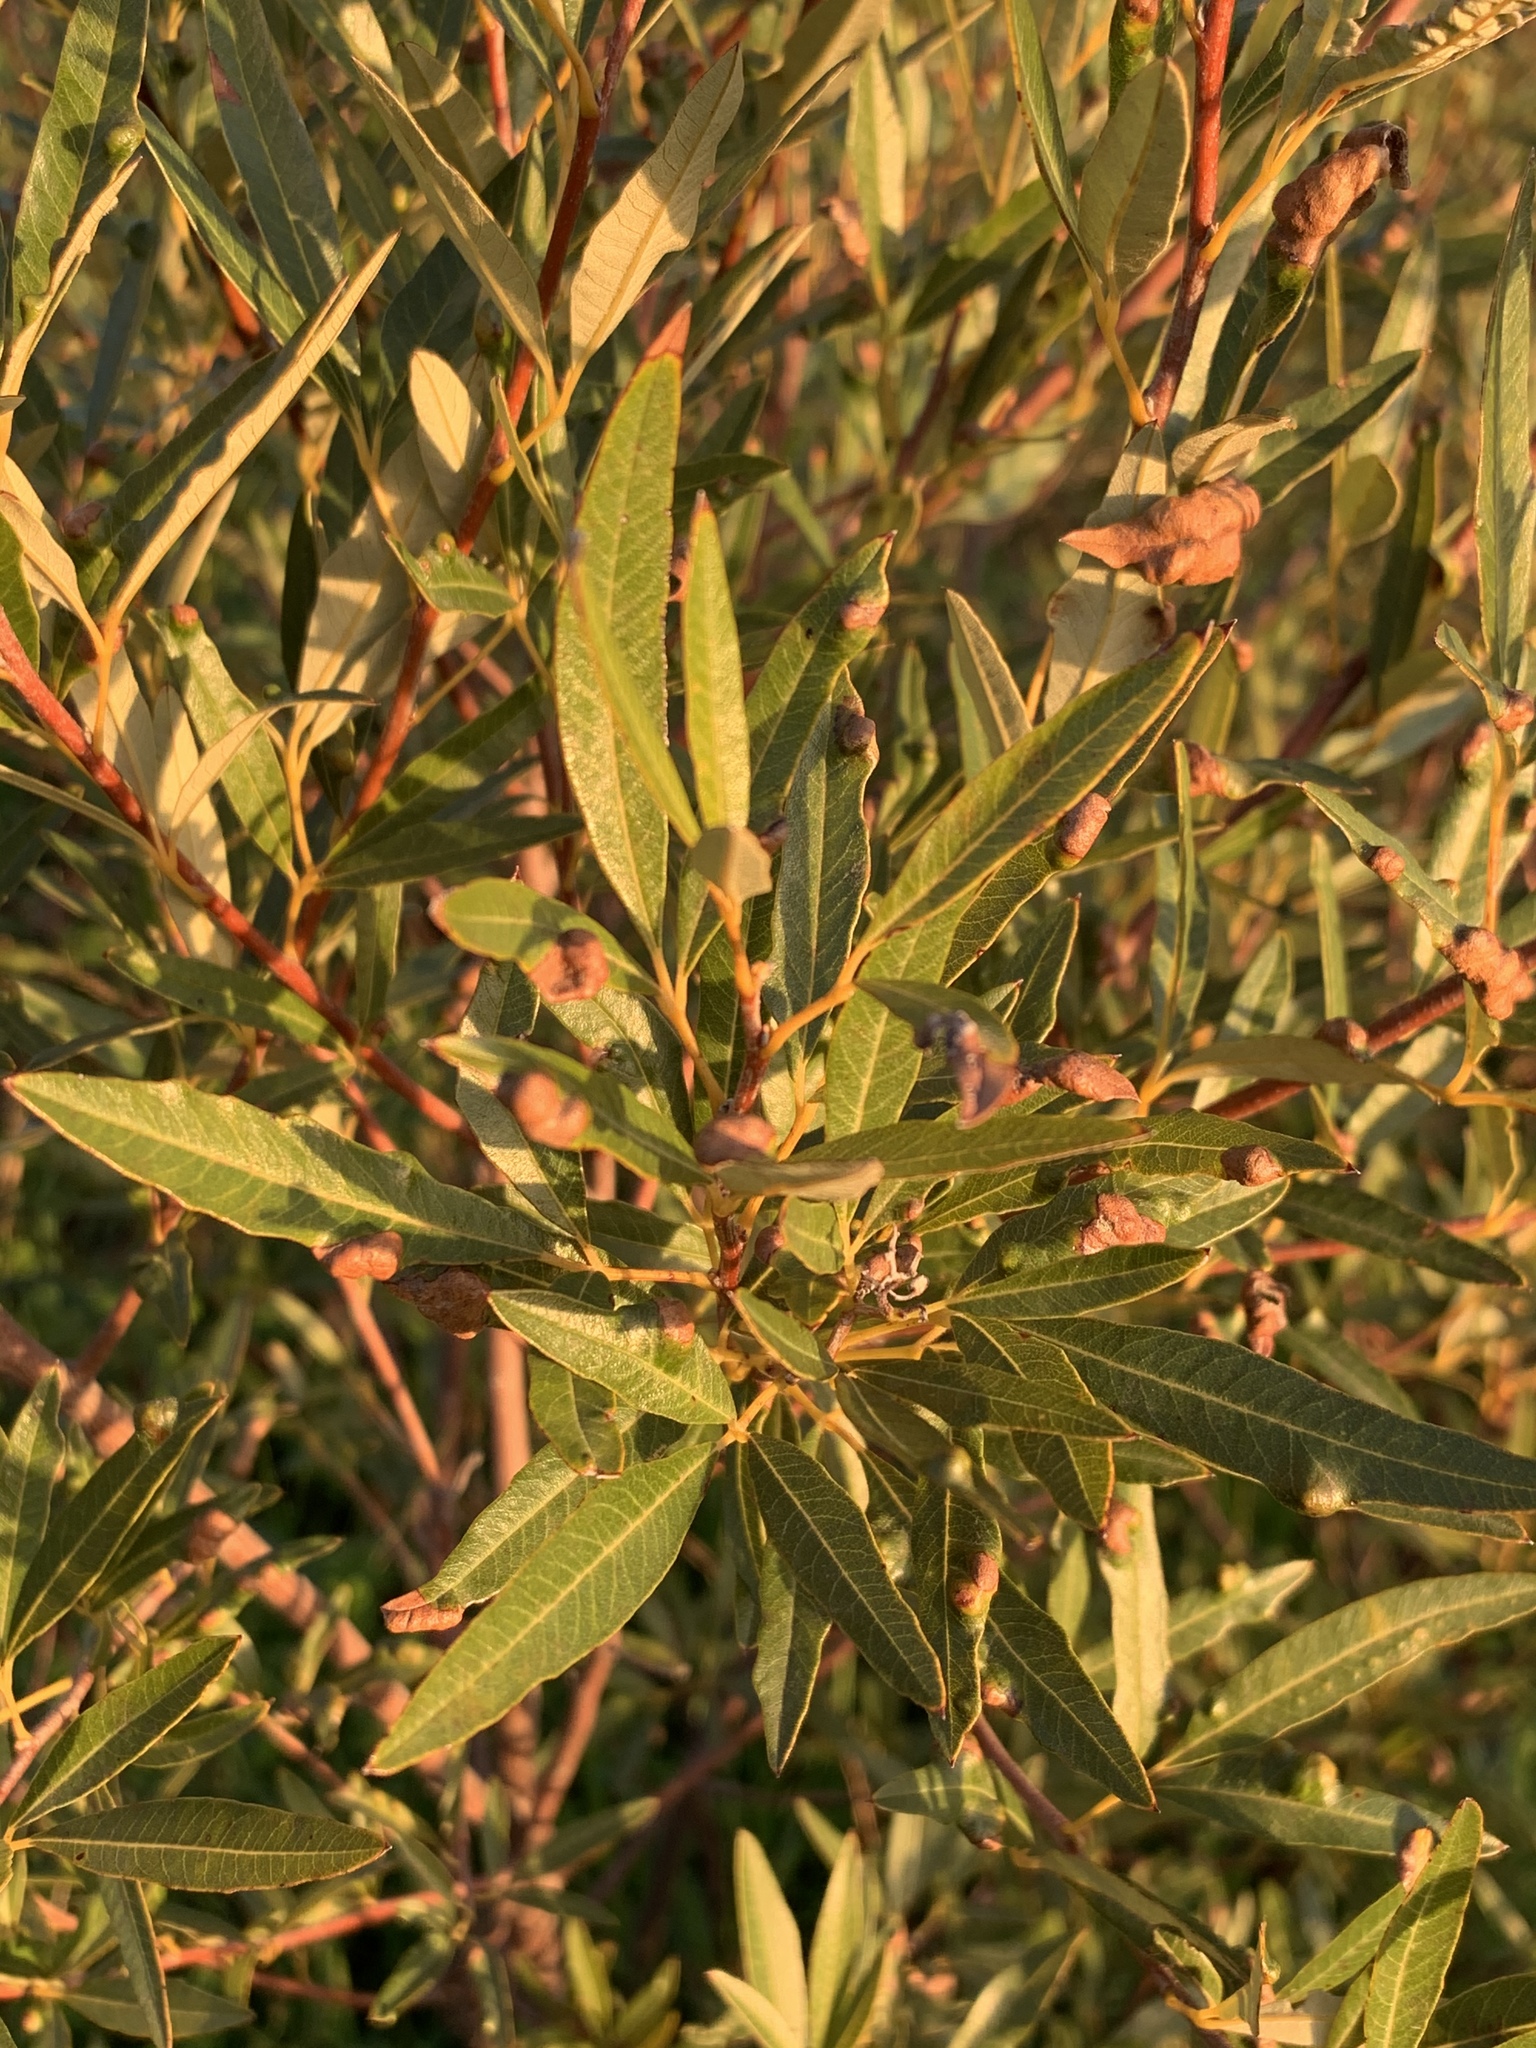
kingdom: Plantae
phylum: Tracheophyta
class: Magnoliopsida
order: Sapindales
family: Anacardiaceae
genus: Searsia
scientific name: Searsia angustifolia
